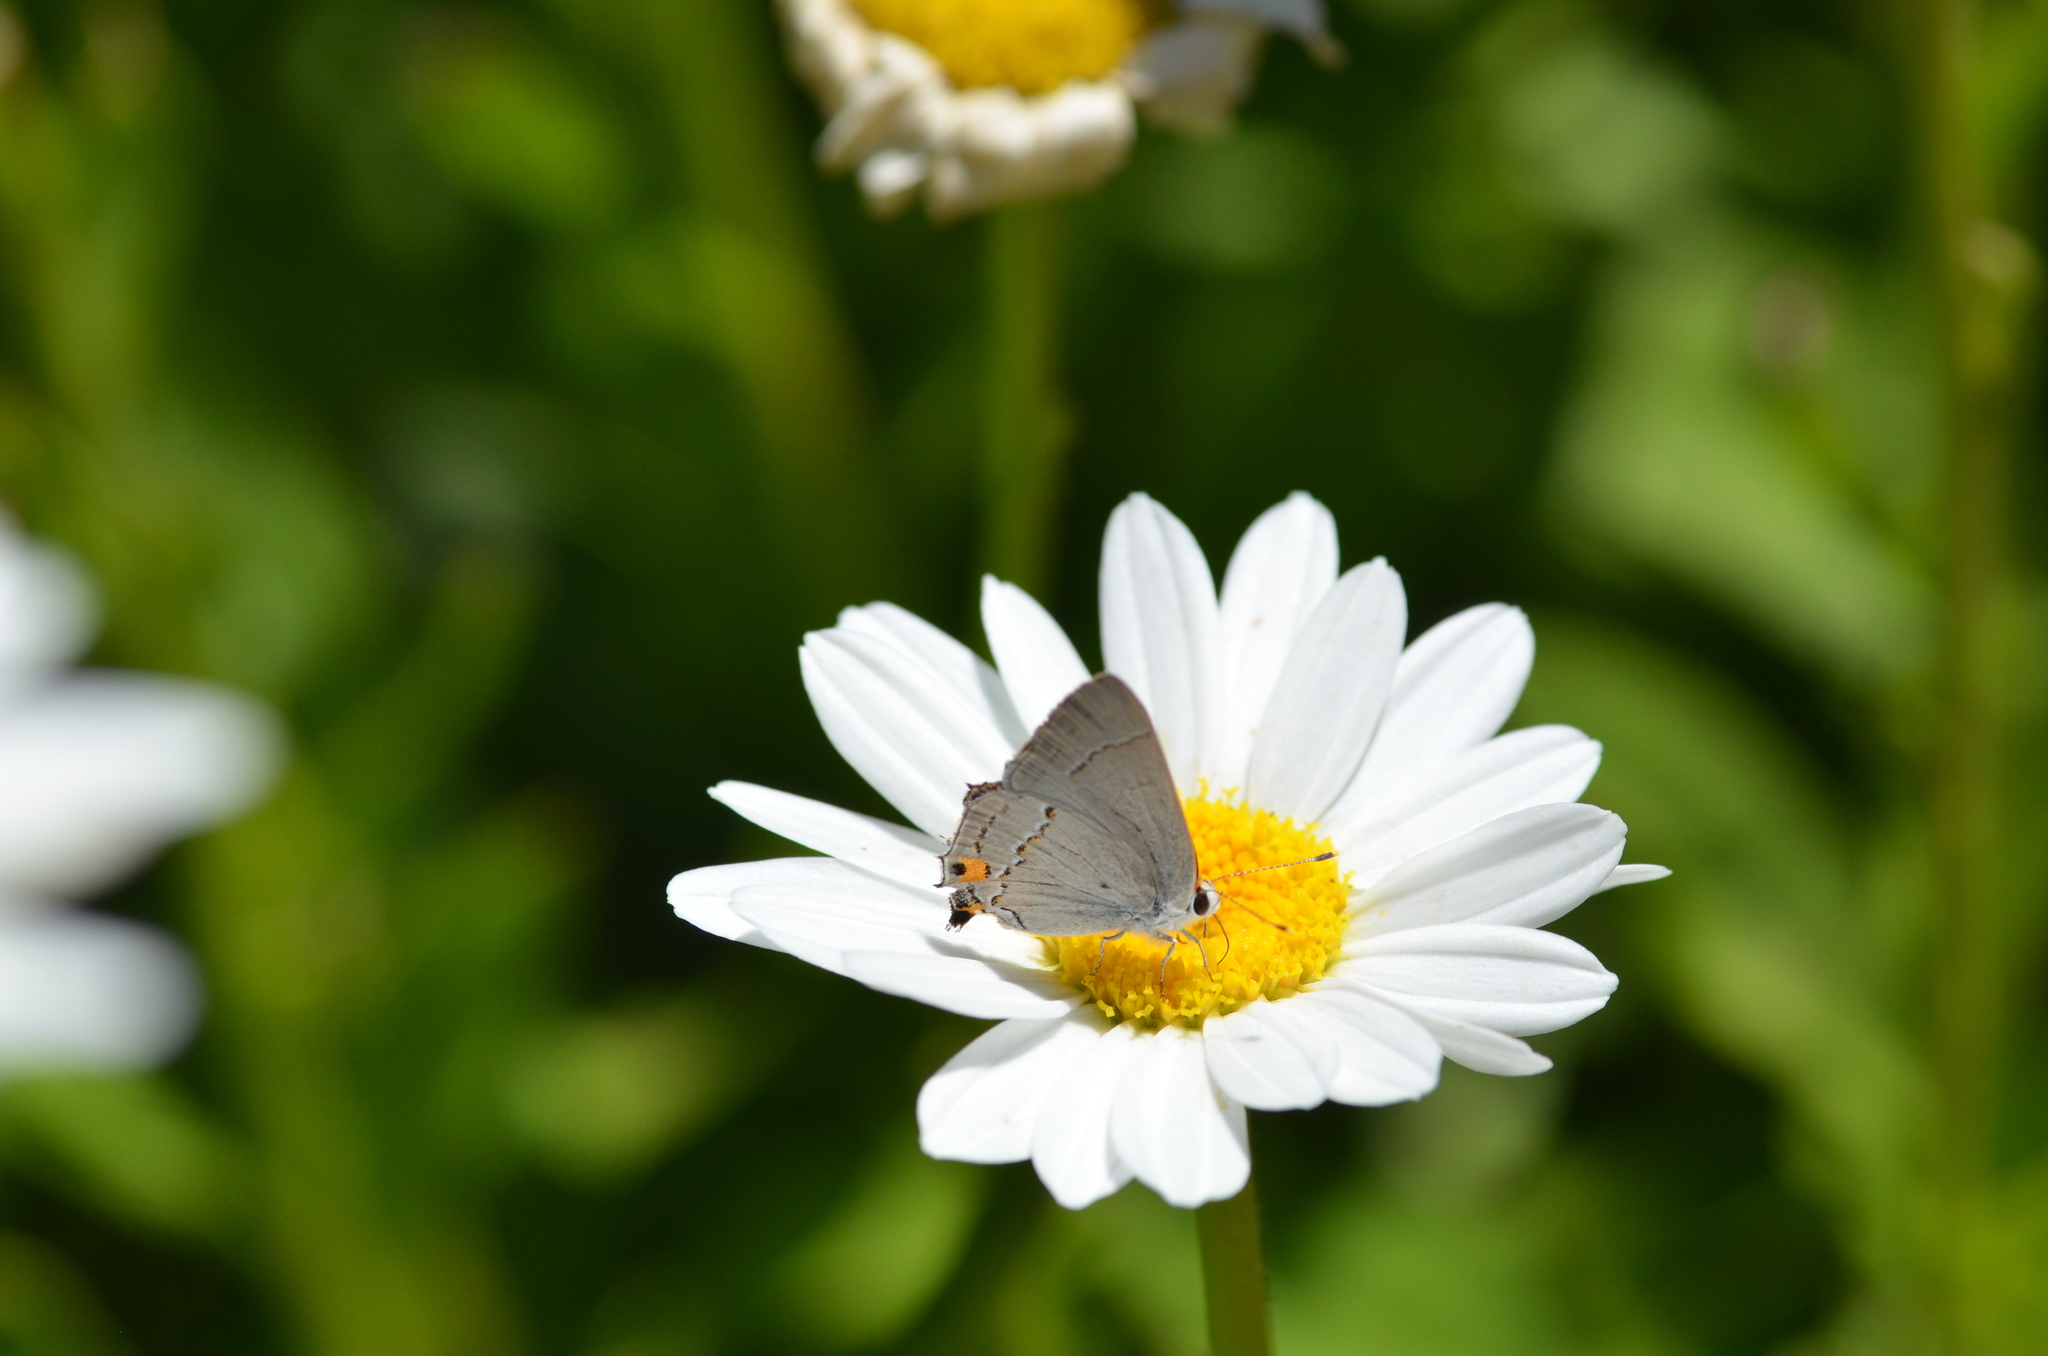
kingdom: Animalia
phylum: Arthropoda
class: Insecta
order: Lepidoptera
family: Lycaenidae
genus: Strymon
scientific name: Strymon melinus
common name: Gray hairstreak
